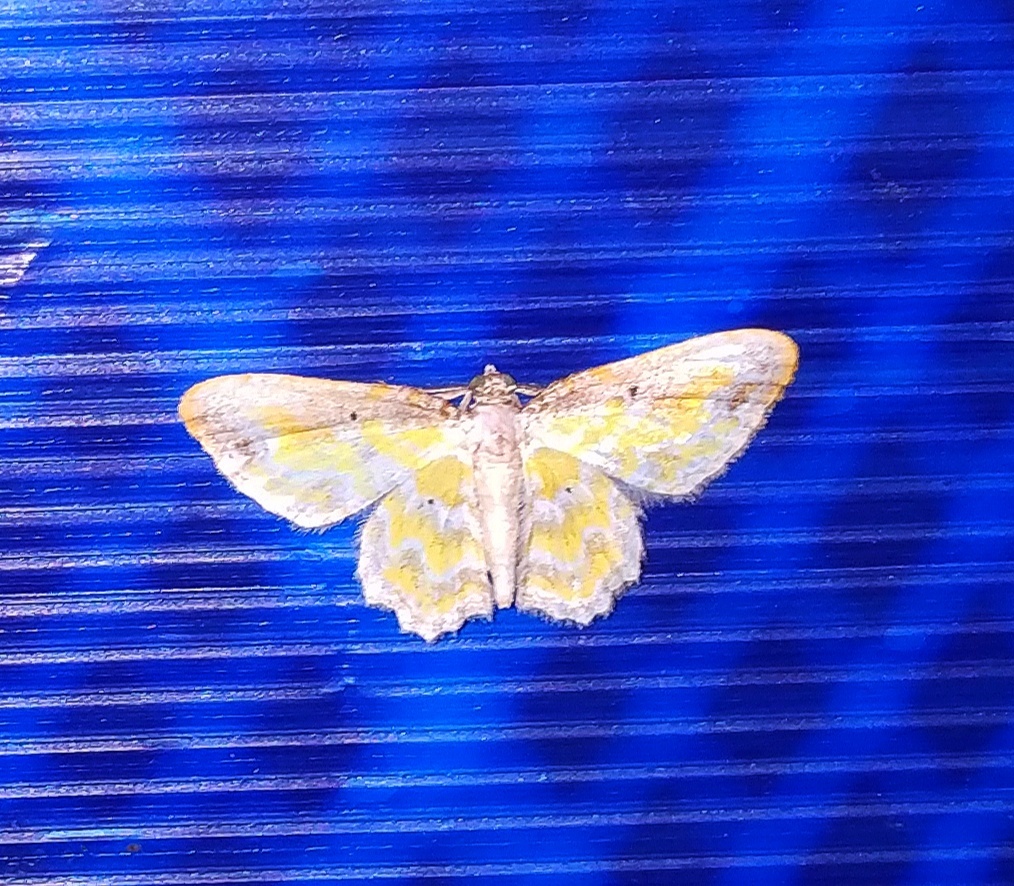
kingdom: Animalia
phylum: Arthropoda
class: Insecta
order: Lepidoptera
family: Geometridae
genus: Acolutha
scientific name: Acolutha pictaria
